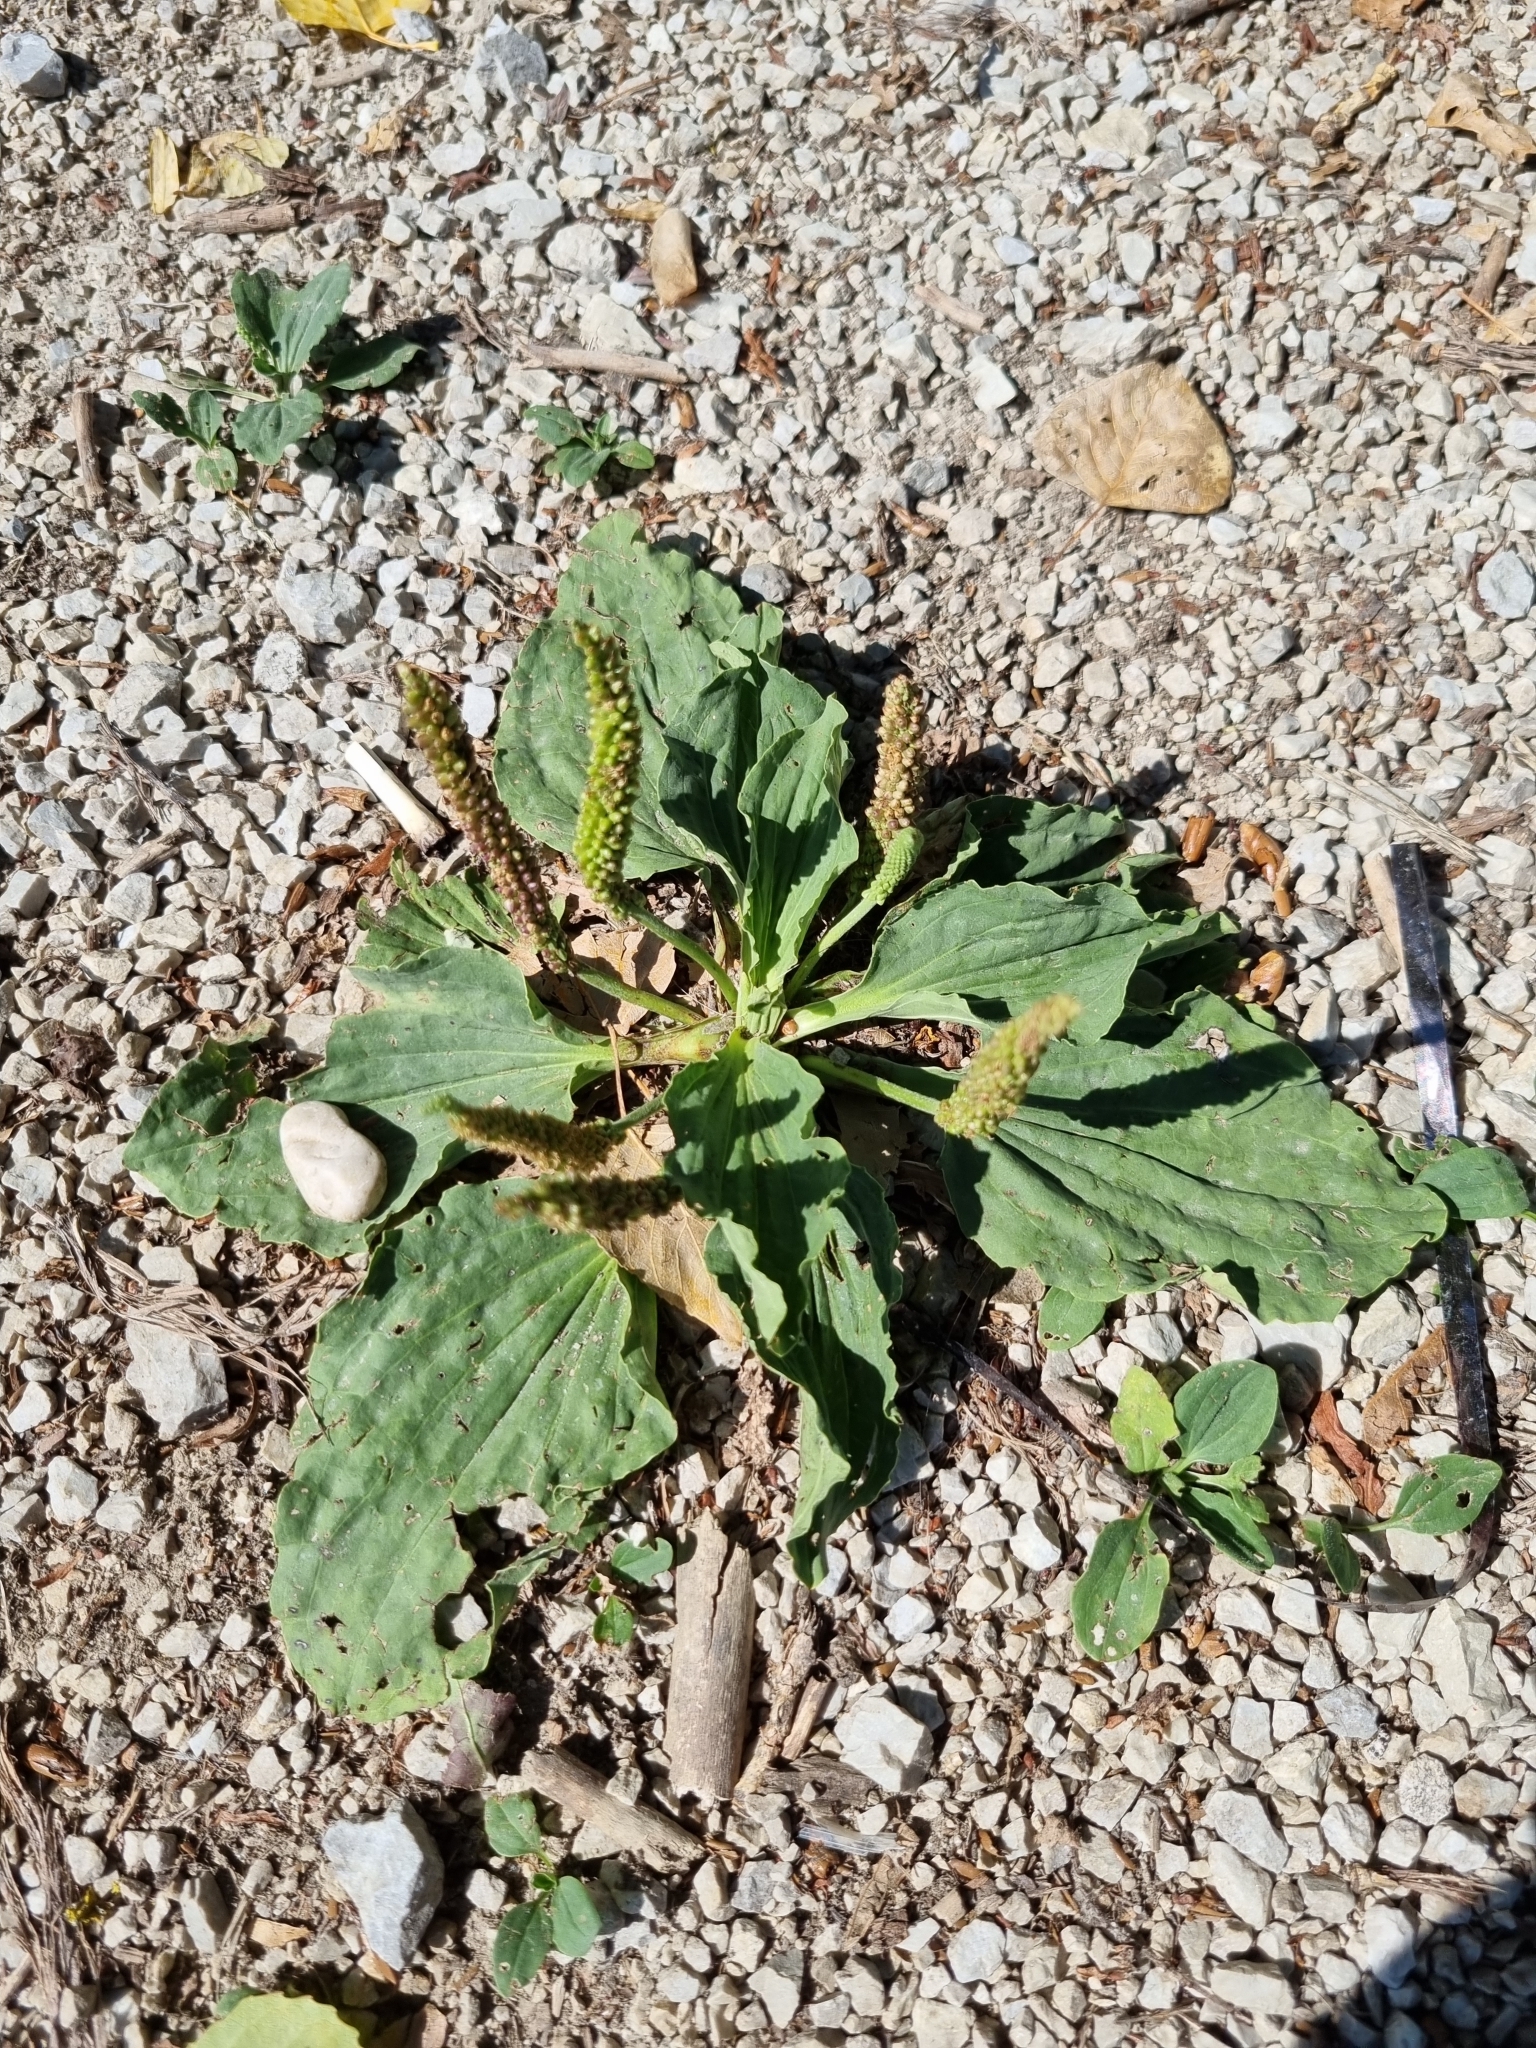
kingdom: Plantae
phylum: Tracheophyta
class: Magnoliopsida
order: Lamiales
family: Plantaginaceae
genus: Plantago
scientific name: Plantago major
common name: Common plantain
